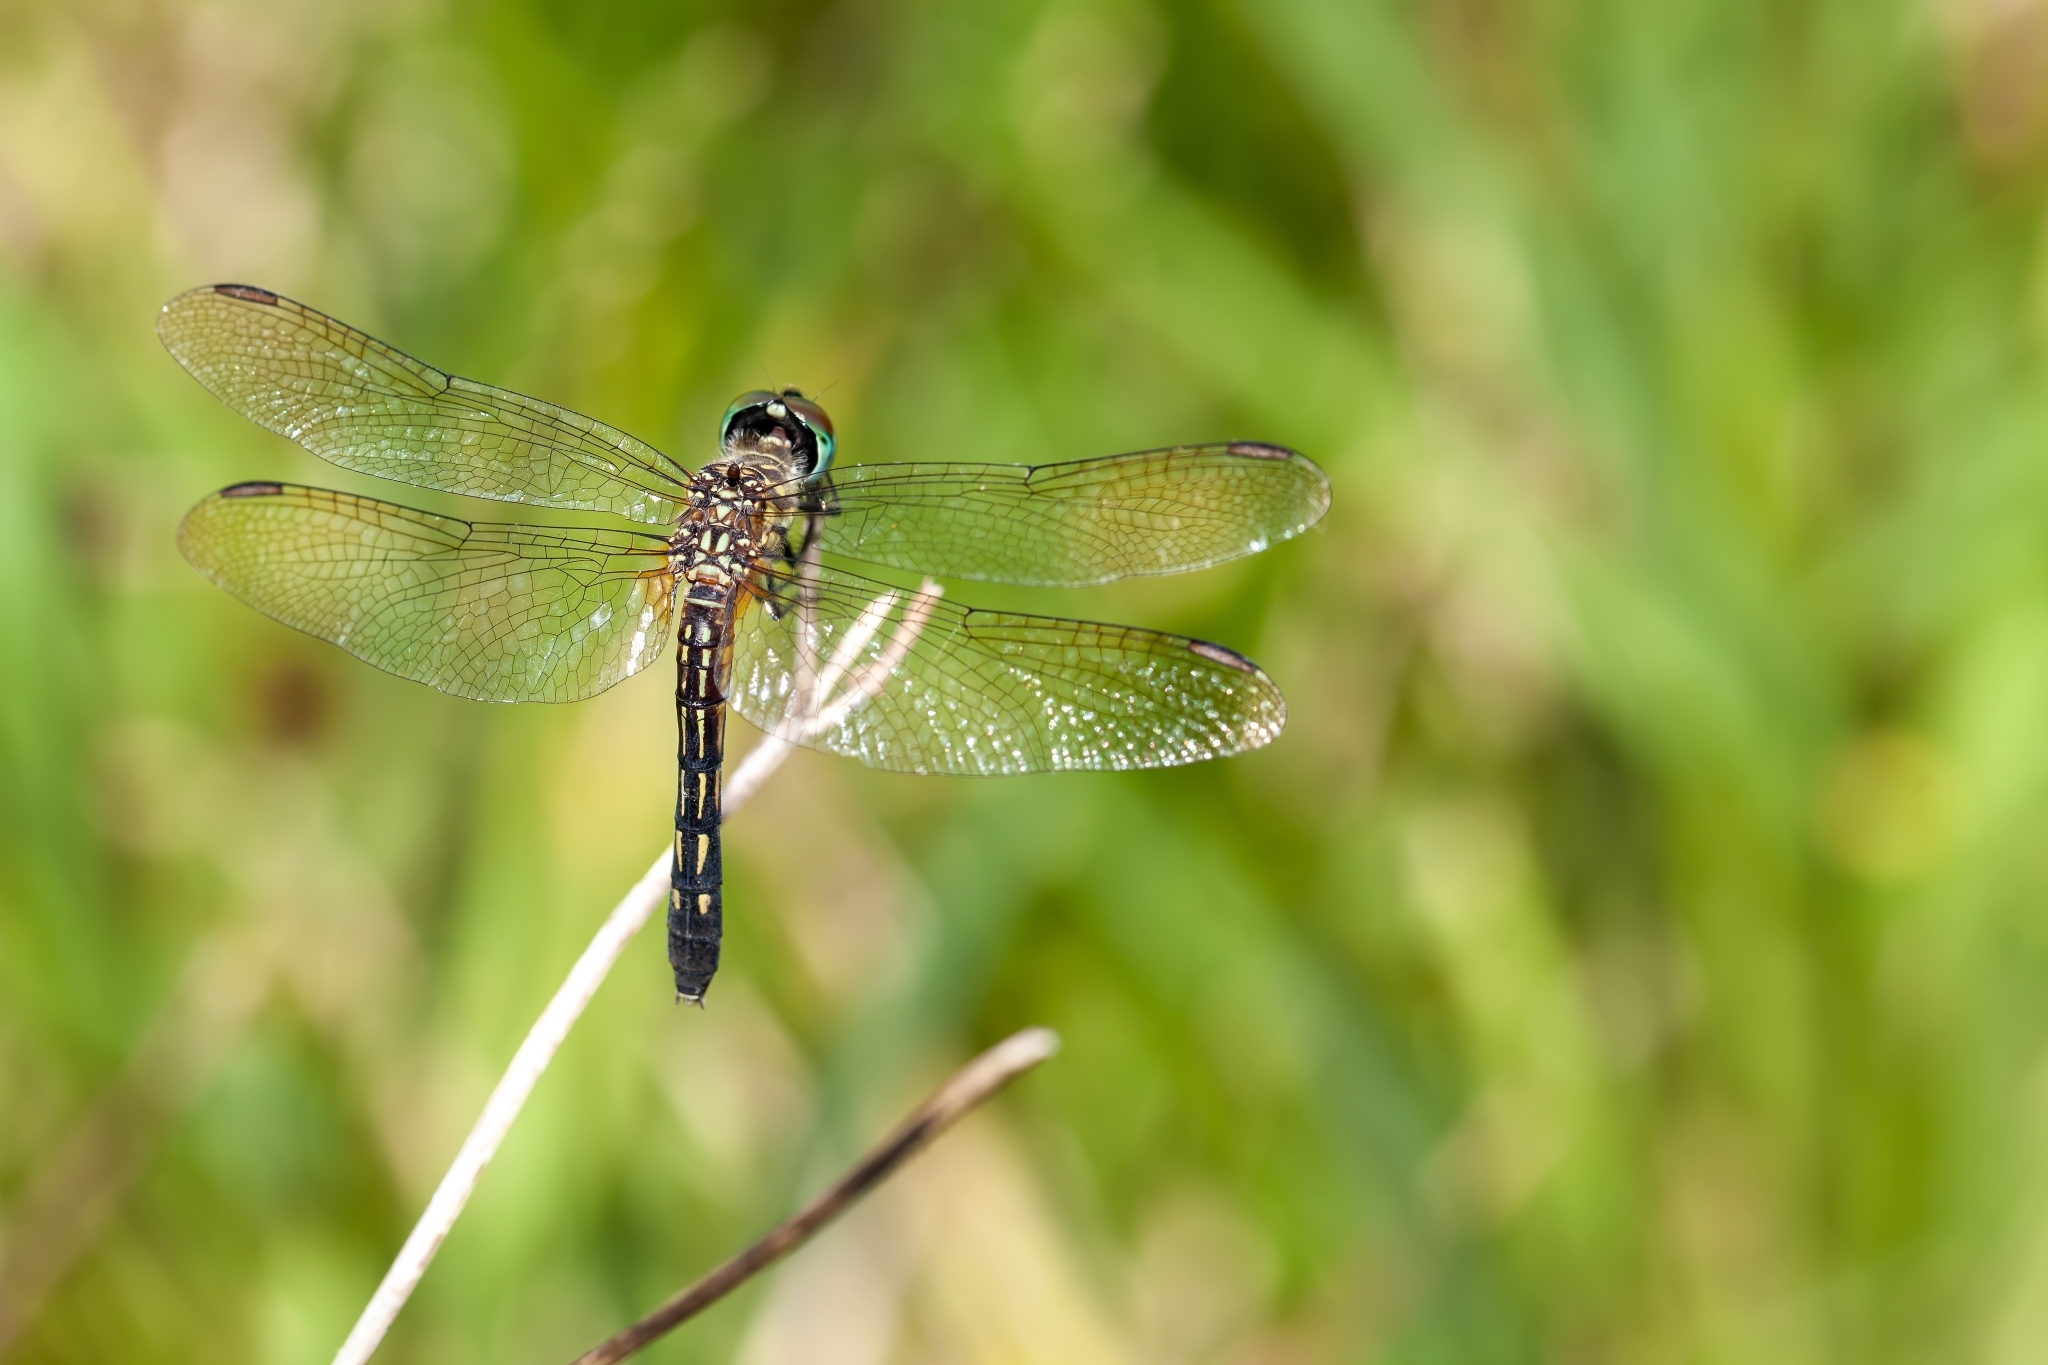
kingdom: Animalia
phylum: Arthropoda
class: Insecta
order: Odonata
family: Libellulidae
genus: Pachydiplax
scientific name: Pachydiplax longipennis
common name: Blue dasher
